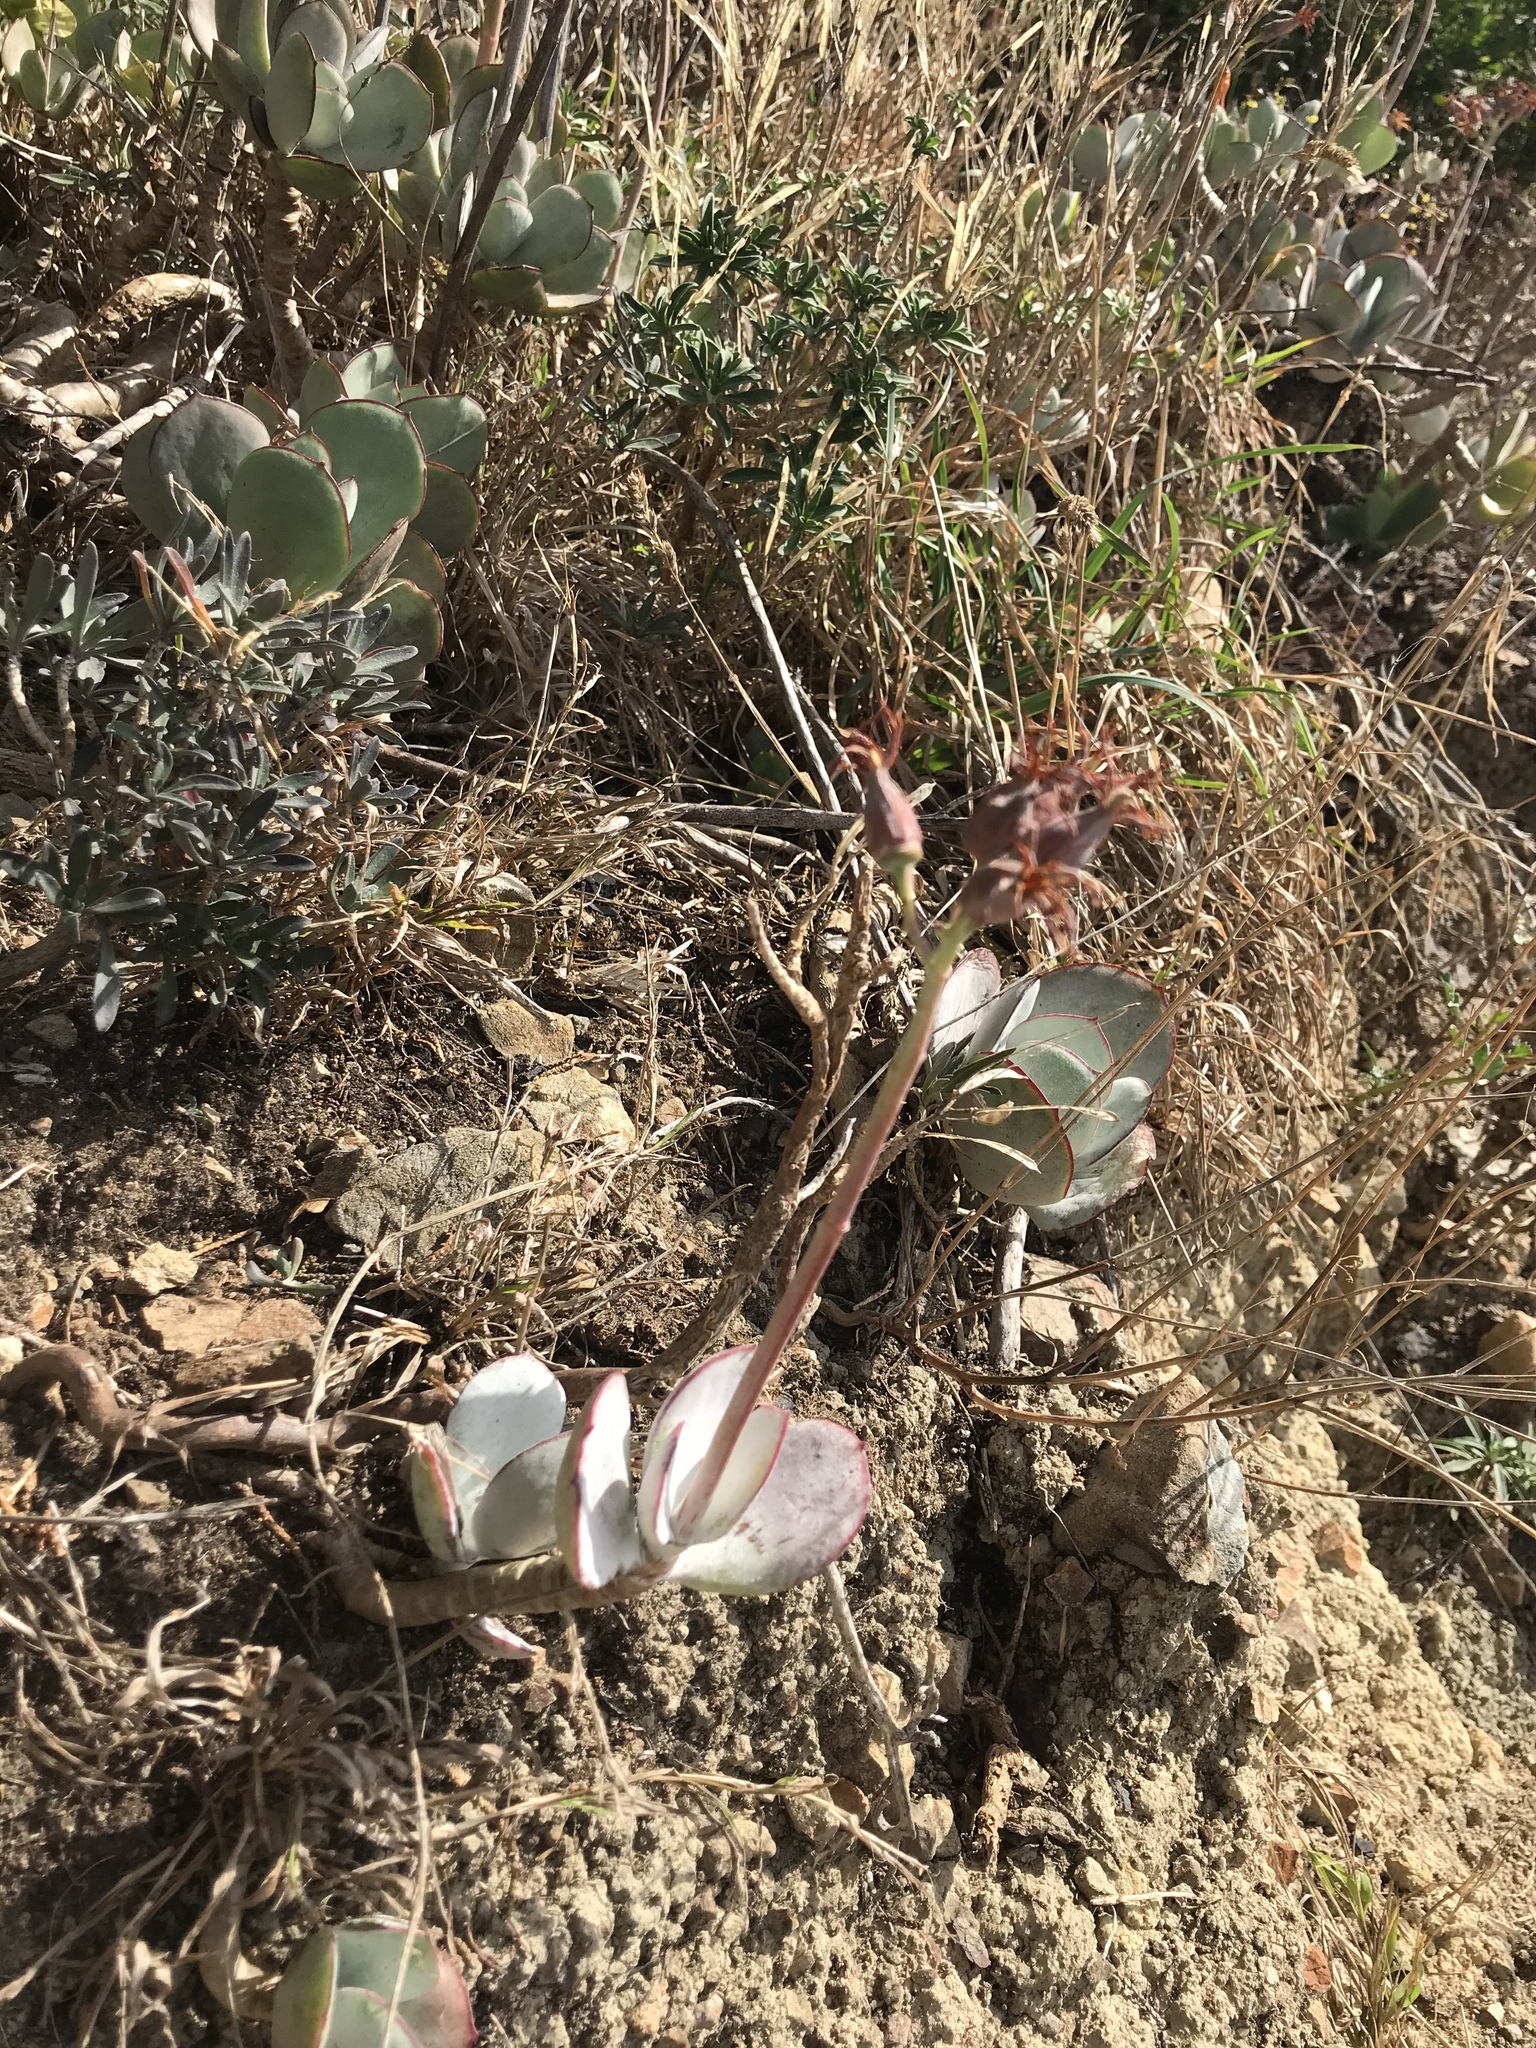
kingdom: Plantae
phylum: Tracheophyta
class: Magnoliopsida
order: Saxifragales
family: Crassulaceae
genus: Cotyledon
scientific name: Cotyledon orbiculata
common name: Pig's ear
